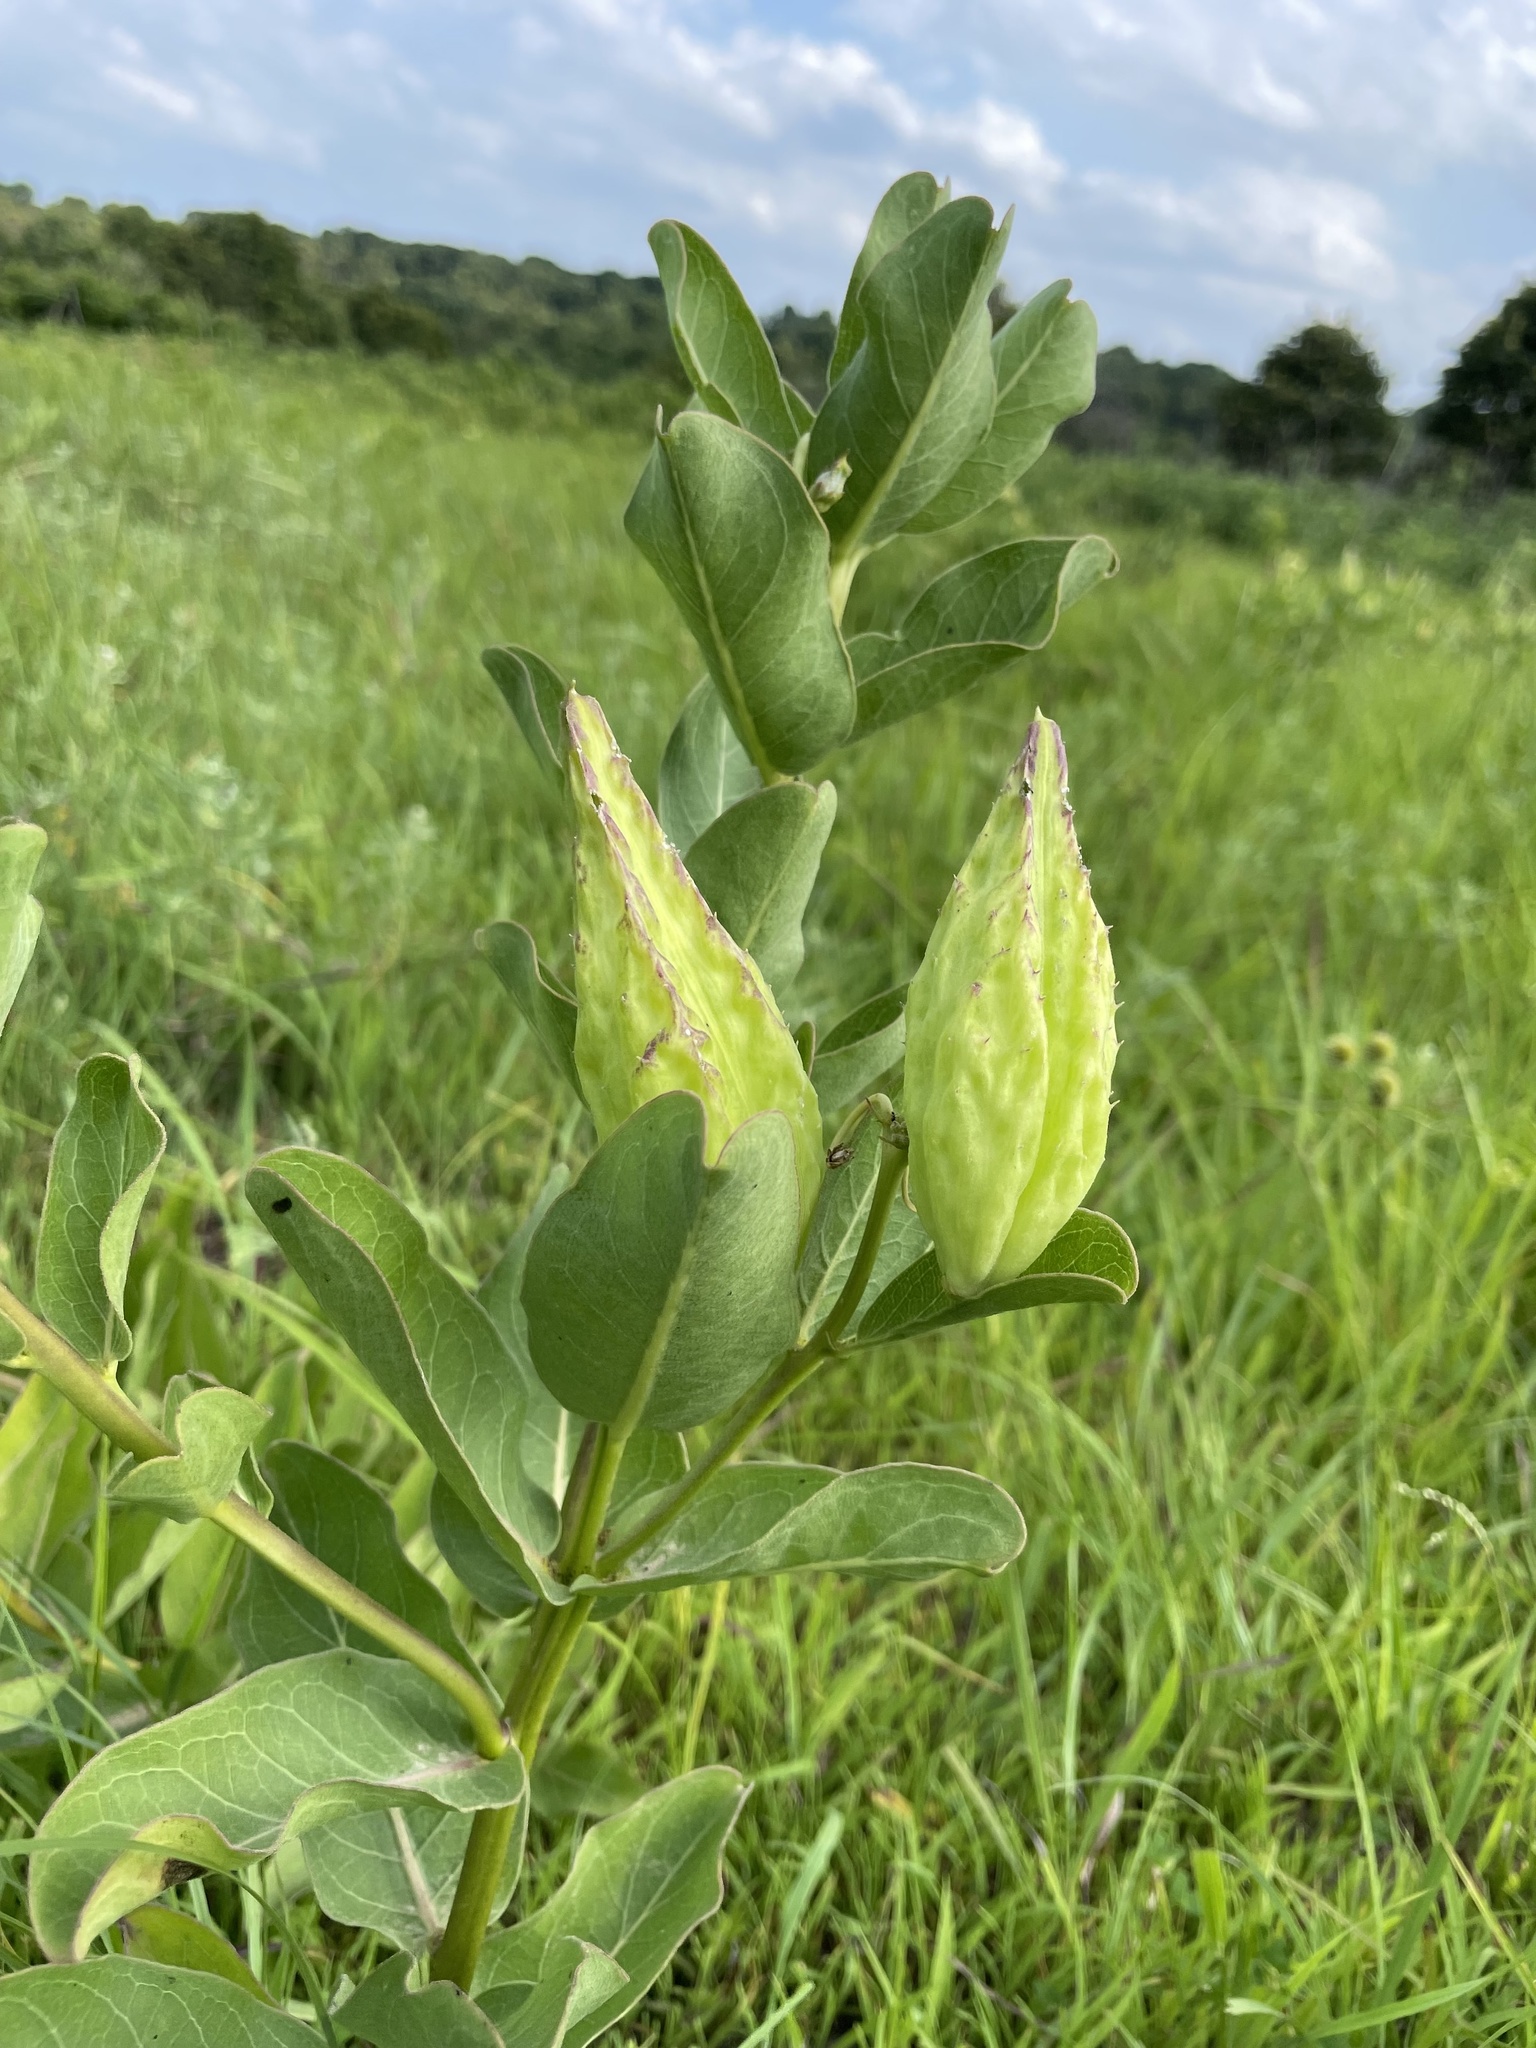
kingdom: Plantae
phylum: Tracheophyta
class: Magnoliopsida
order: Gentianales
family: Apocynaceae
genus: Asclepias
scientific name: Asclepias viridis
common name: Antelope-horns
